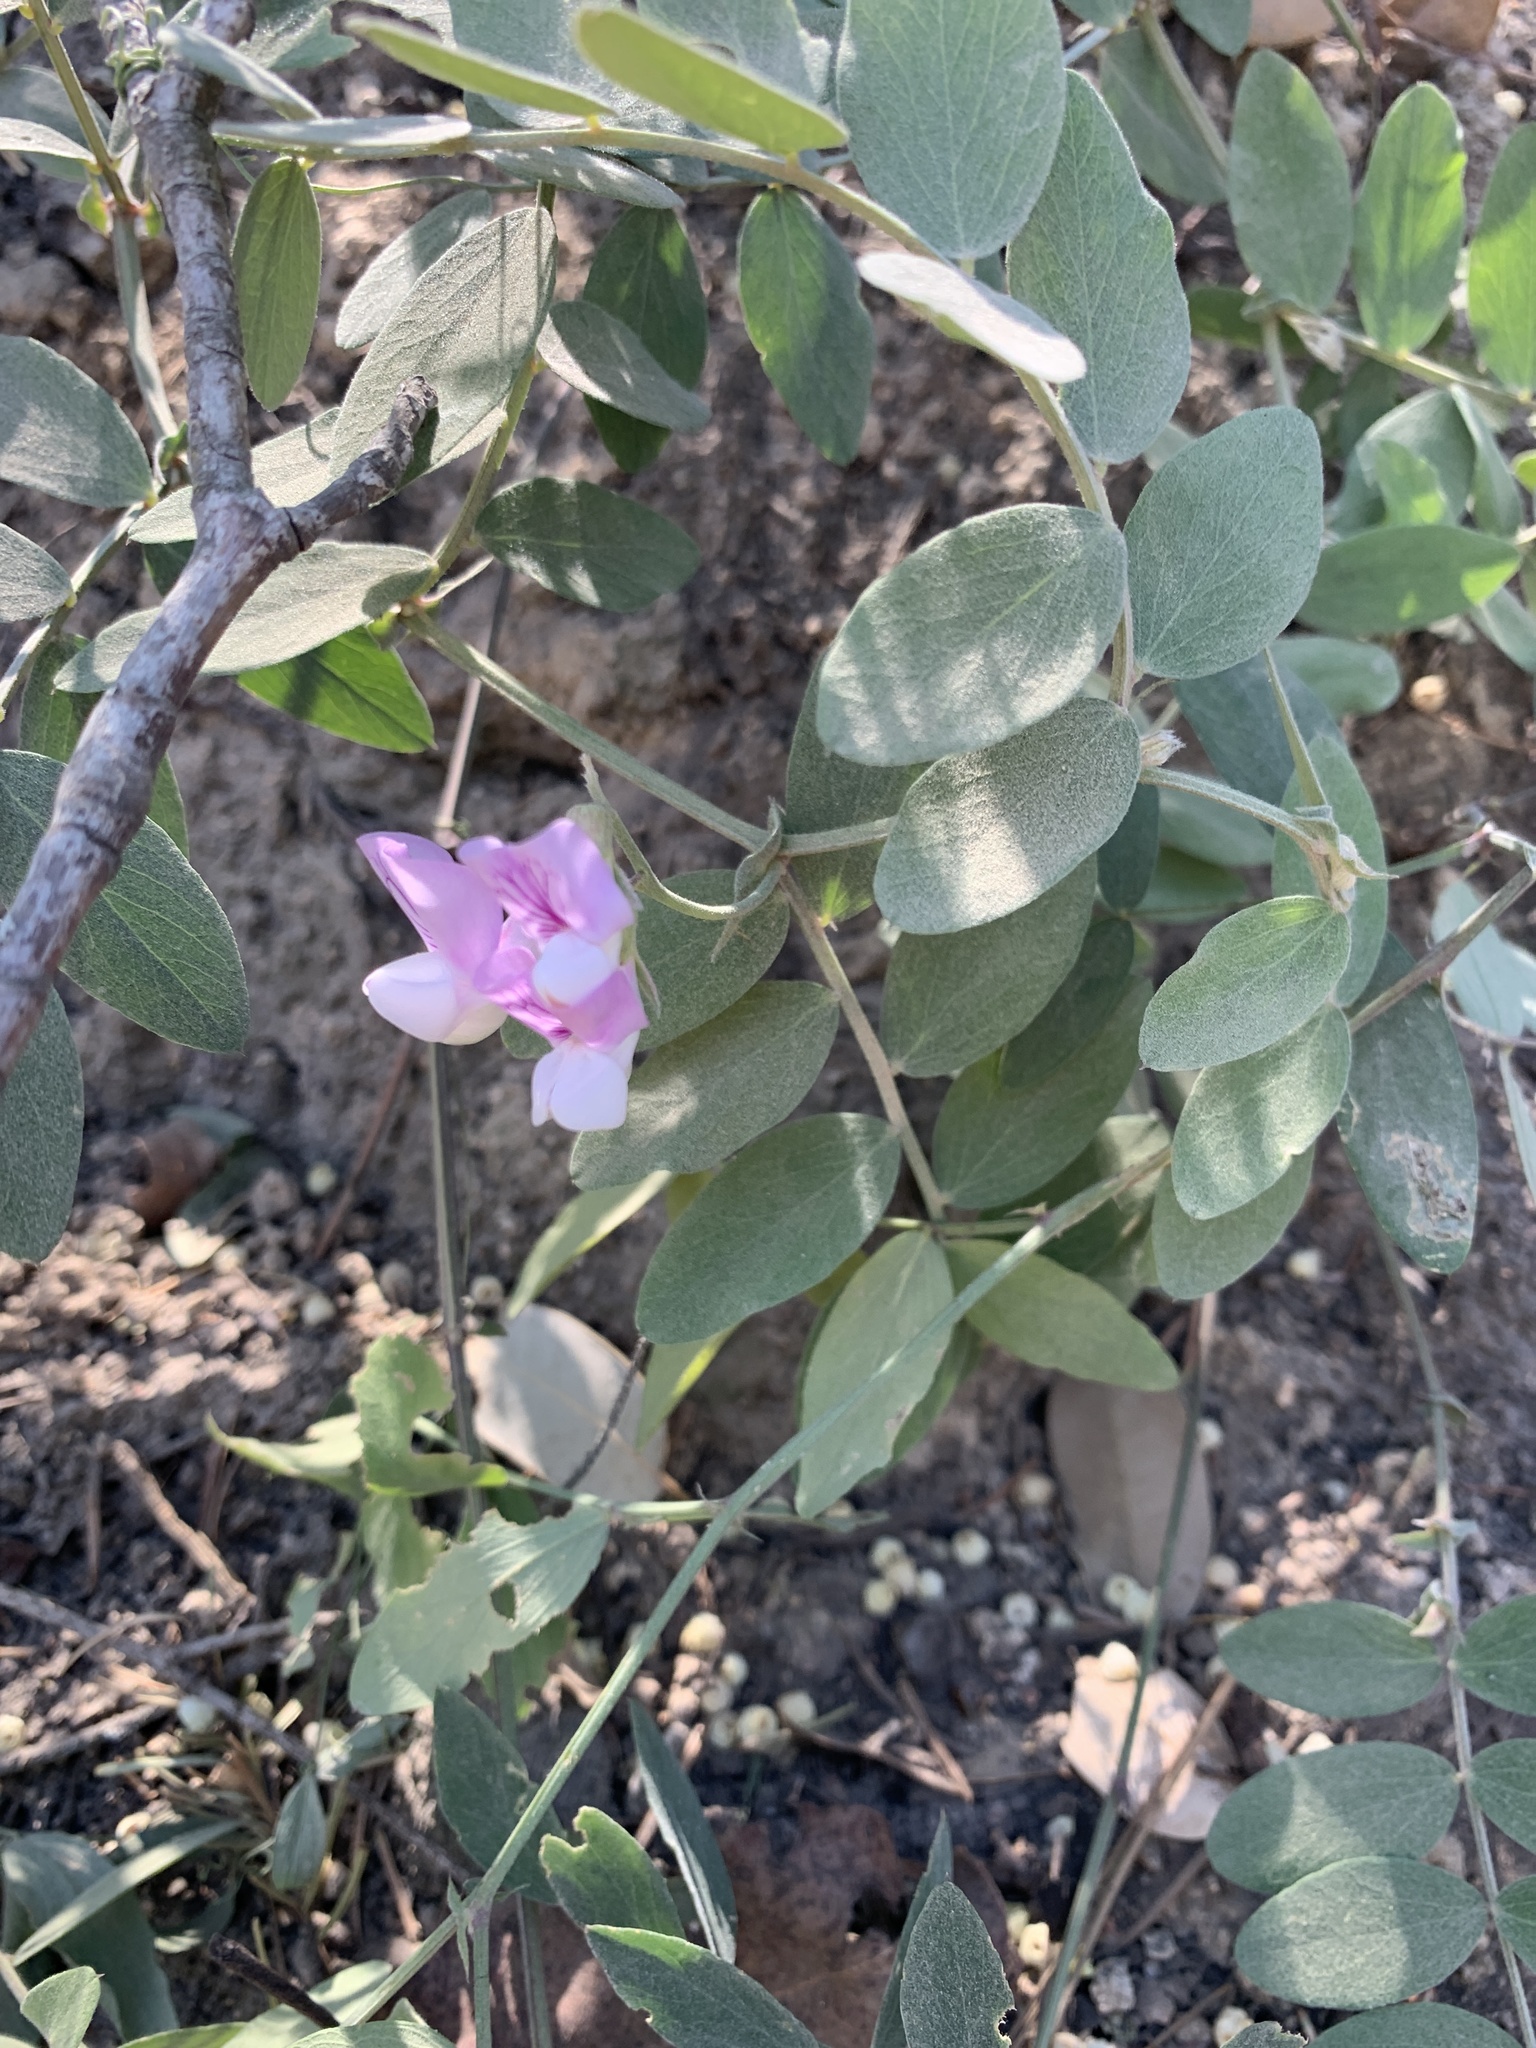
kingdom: Plantae
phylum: Tracheophyta
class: Magnoliopsida
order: Fabales
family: Fabaceae
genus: Lathyrus
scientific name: Lathyrus vestitus
